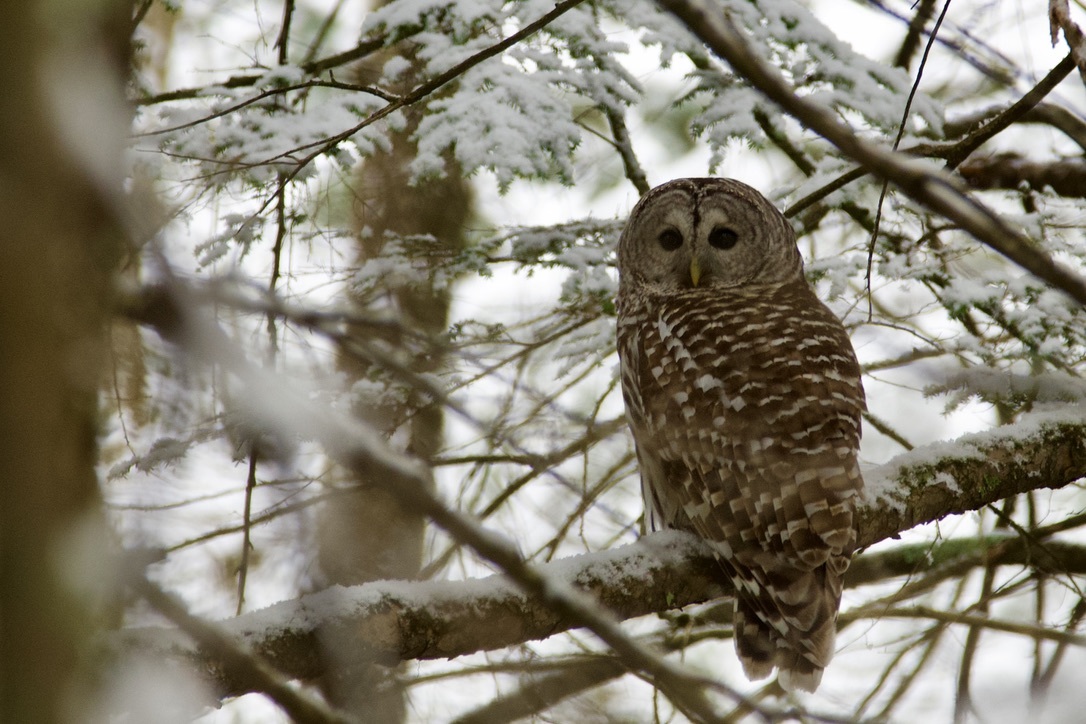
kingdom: Animalia
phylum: Chordata
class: Aves
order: Strigiformes
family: Strigidae
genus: Strix
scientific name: Strix varia
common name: Barred owl
